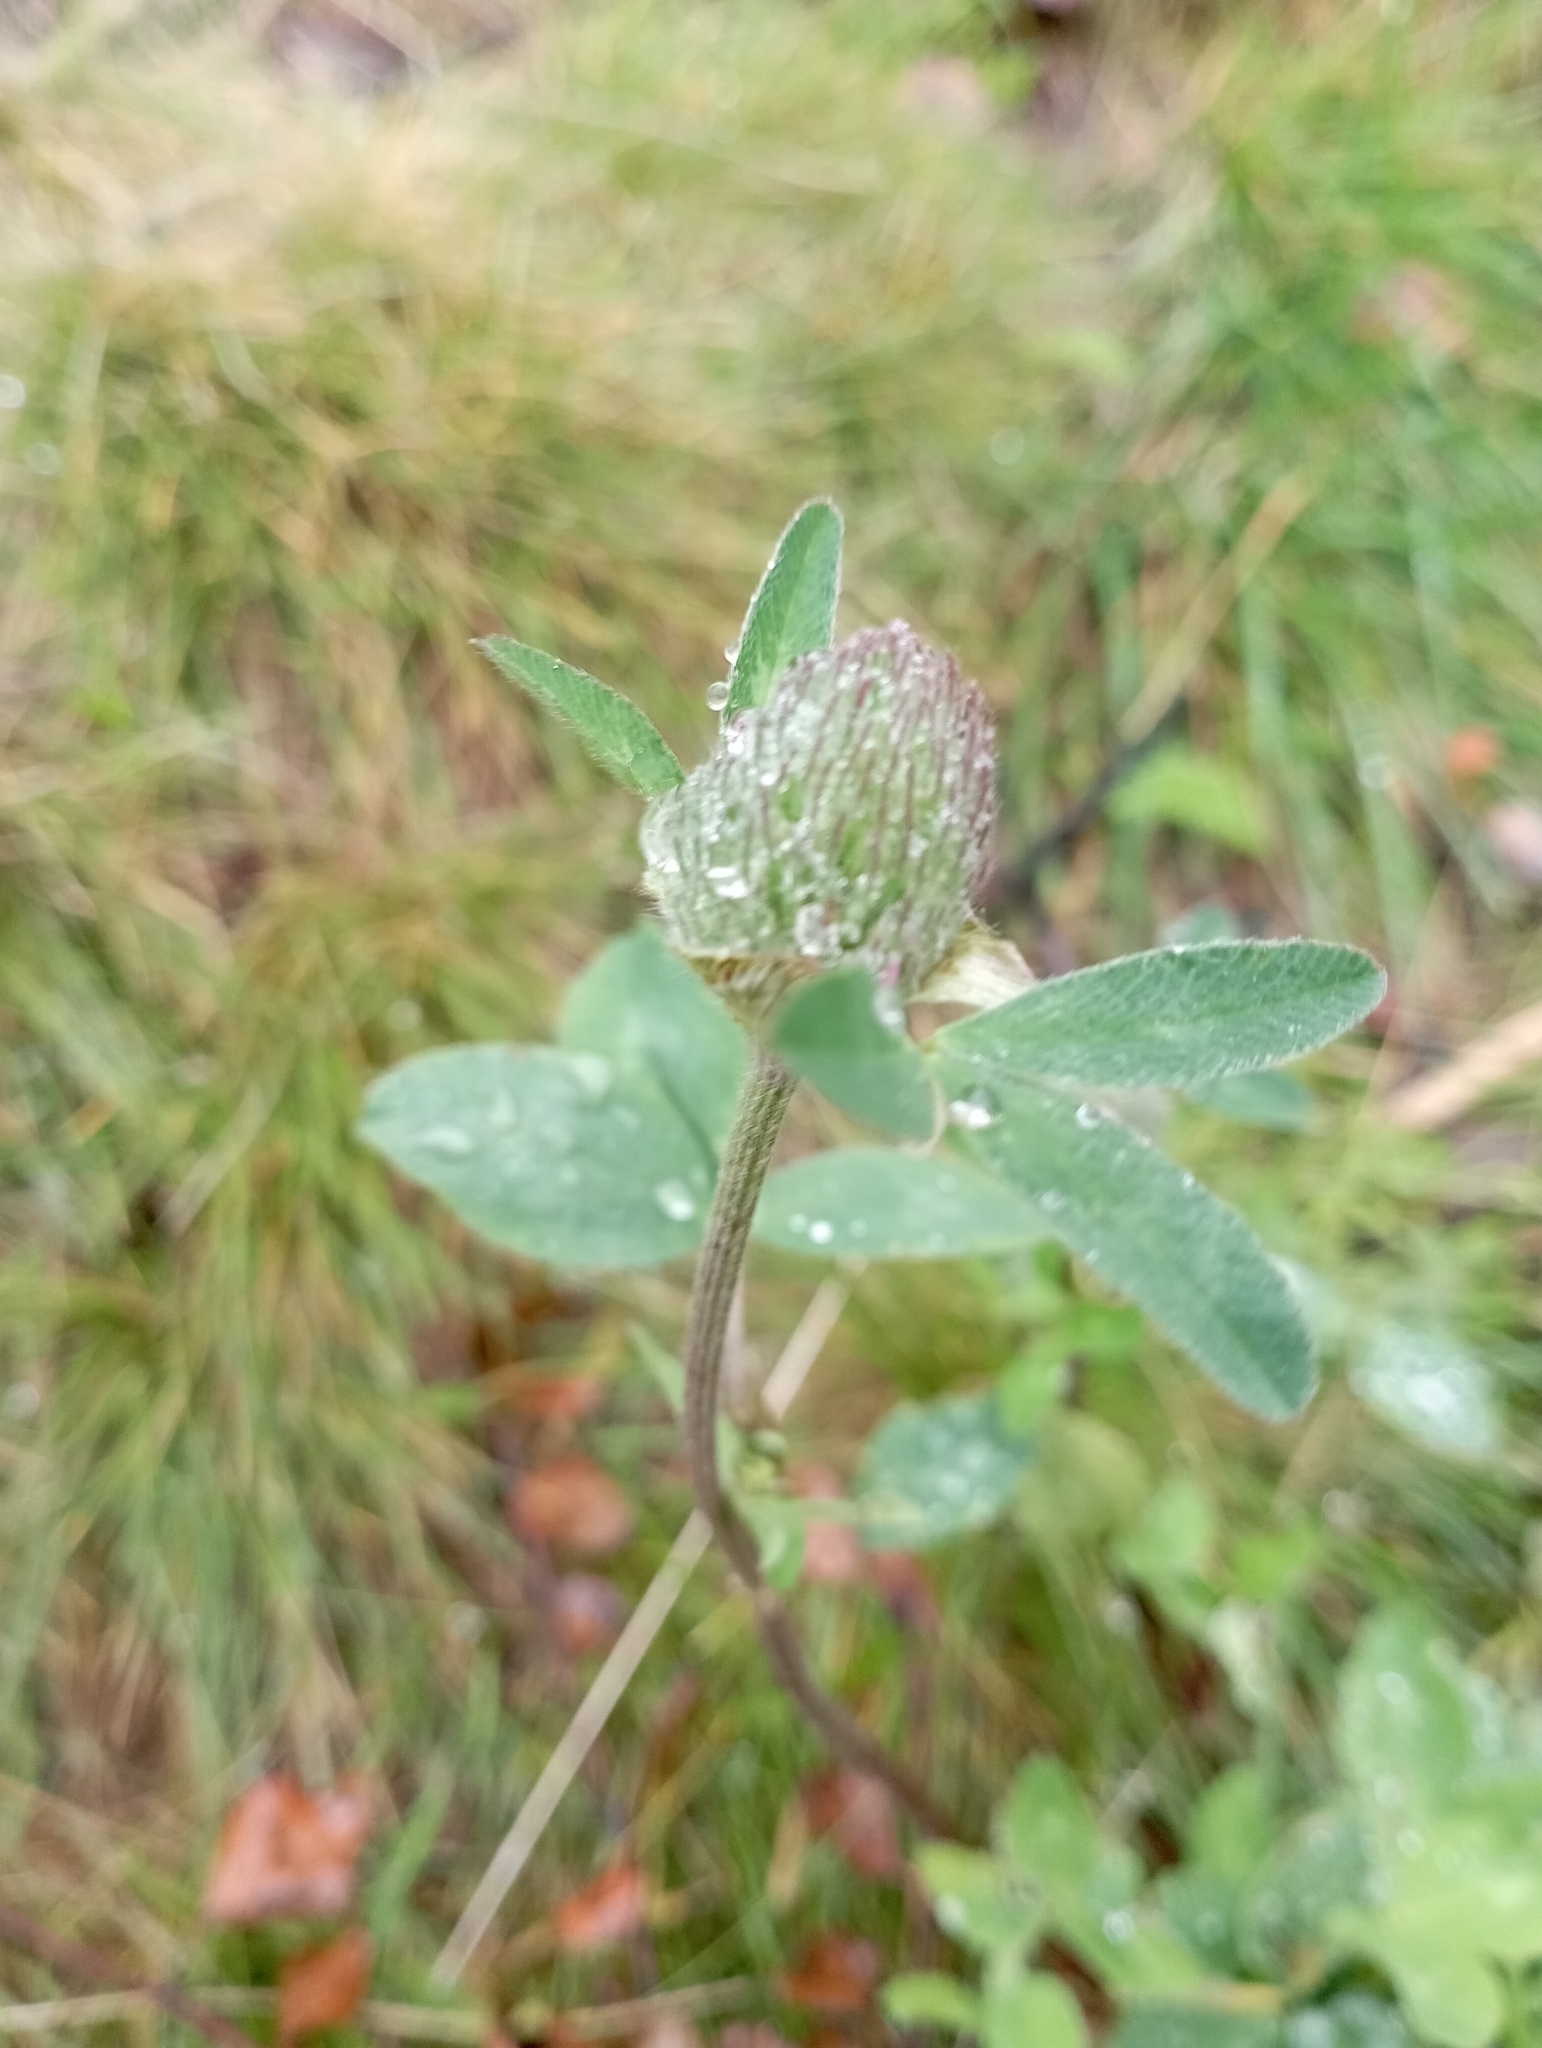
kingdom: Plantae
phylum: Tracheophyta
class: Magnoliopsida
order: Fabales
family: Fabaceae
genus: Trifolium
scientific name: Trifolium pratense
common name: Red clover
